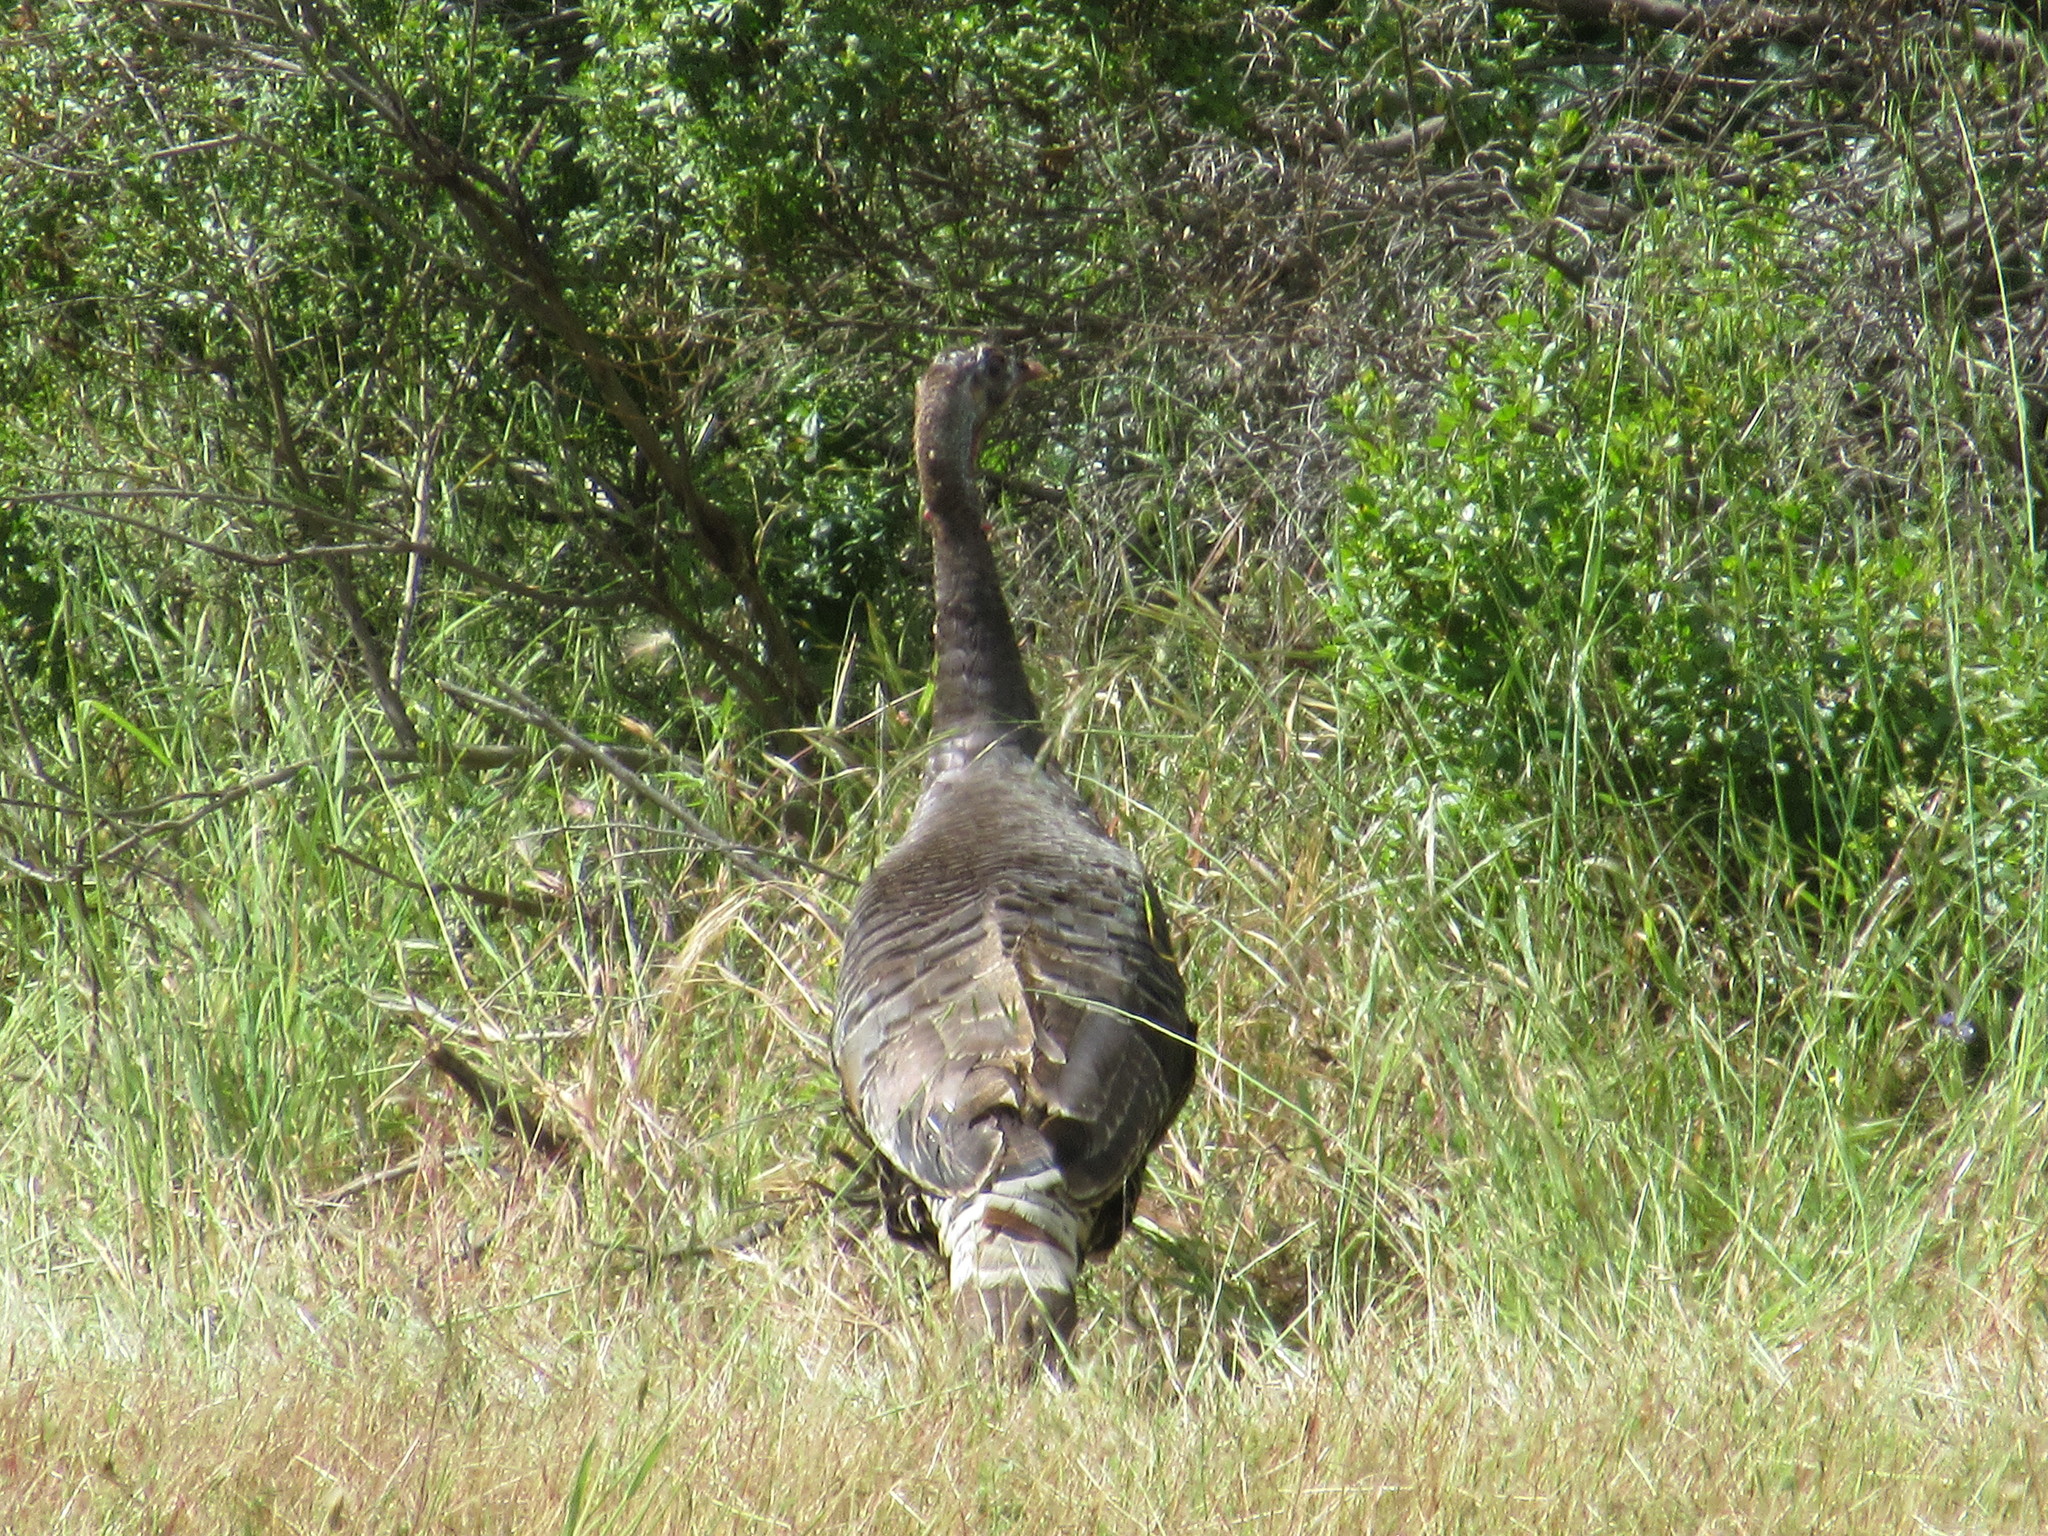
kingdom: Animalia
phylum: Chordata
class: Aves
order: Galliformes
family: Phasianidae
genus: Meleagris
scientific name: Meleagris gallopavo
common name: Wild turkey
